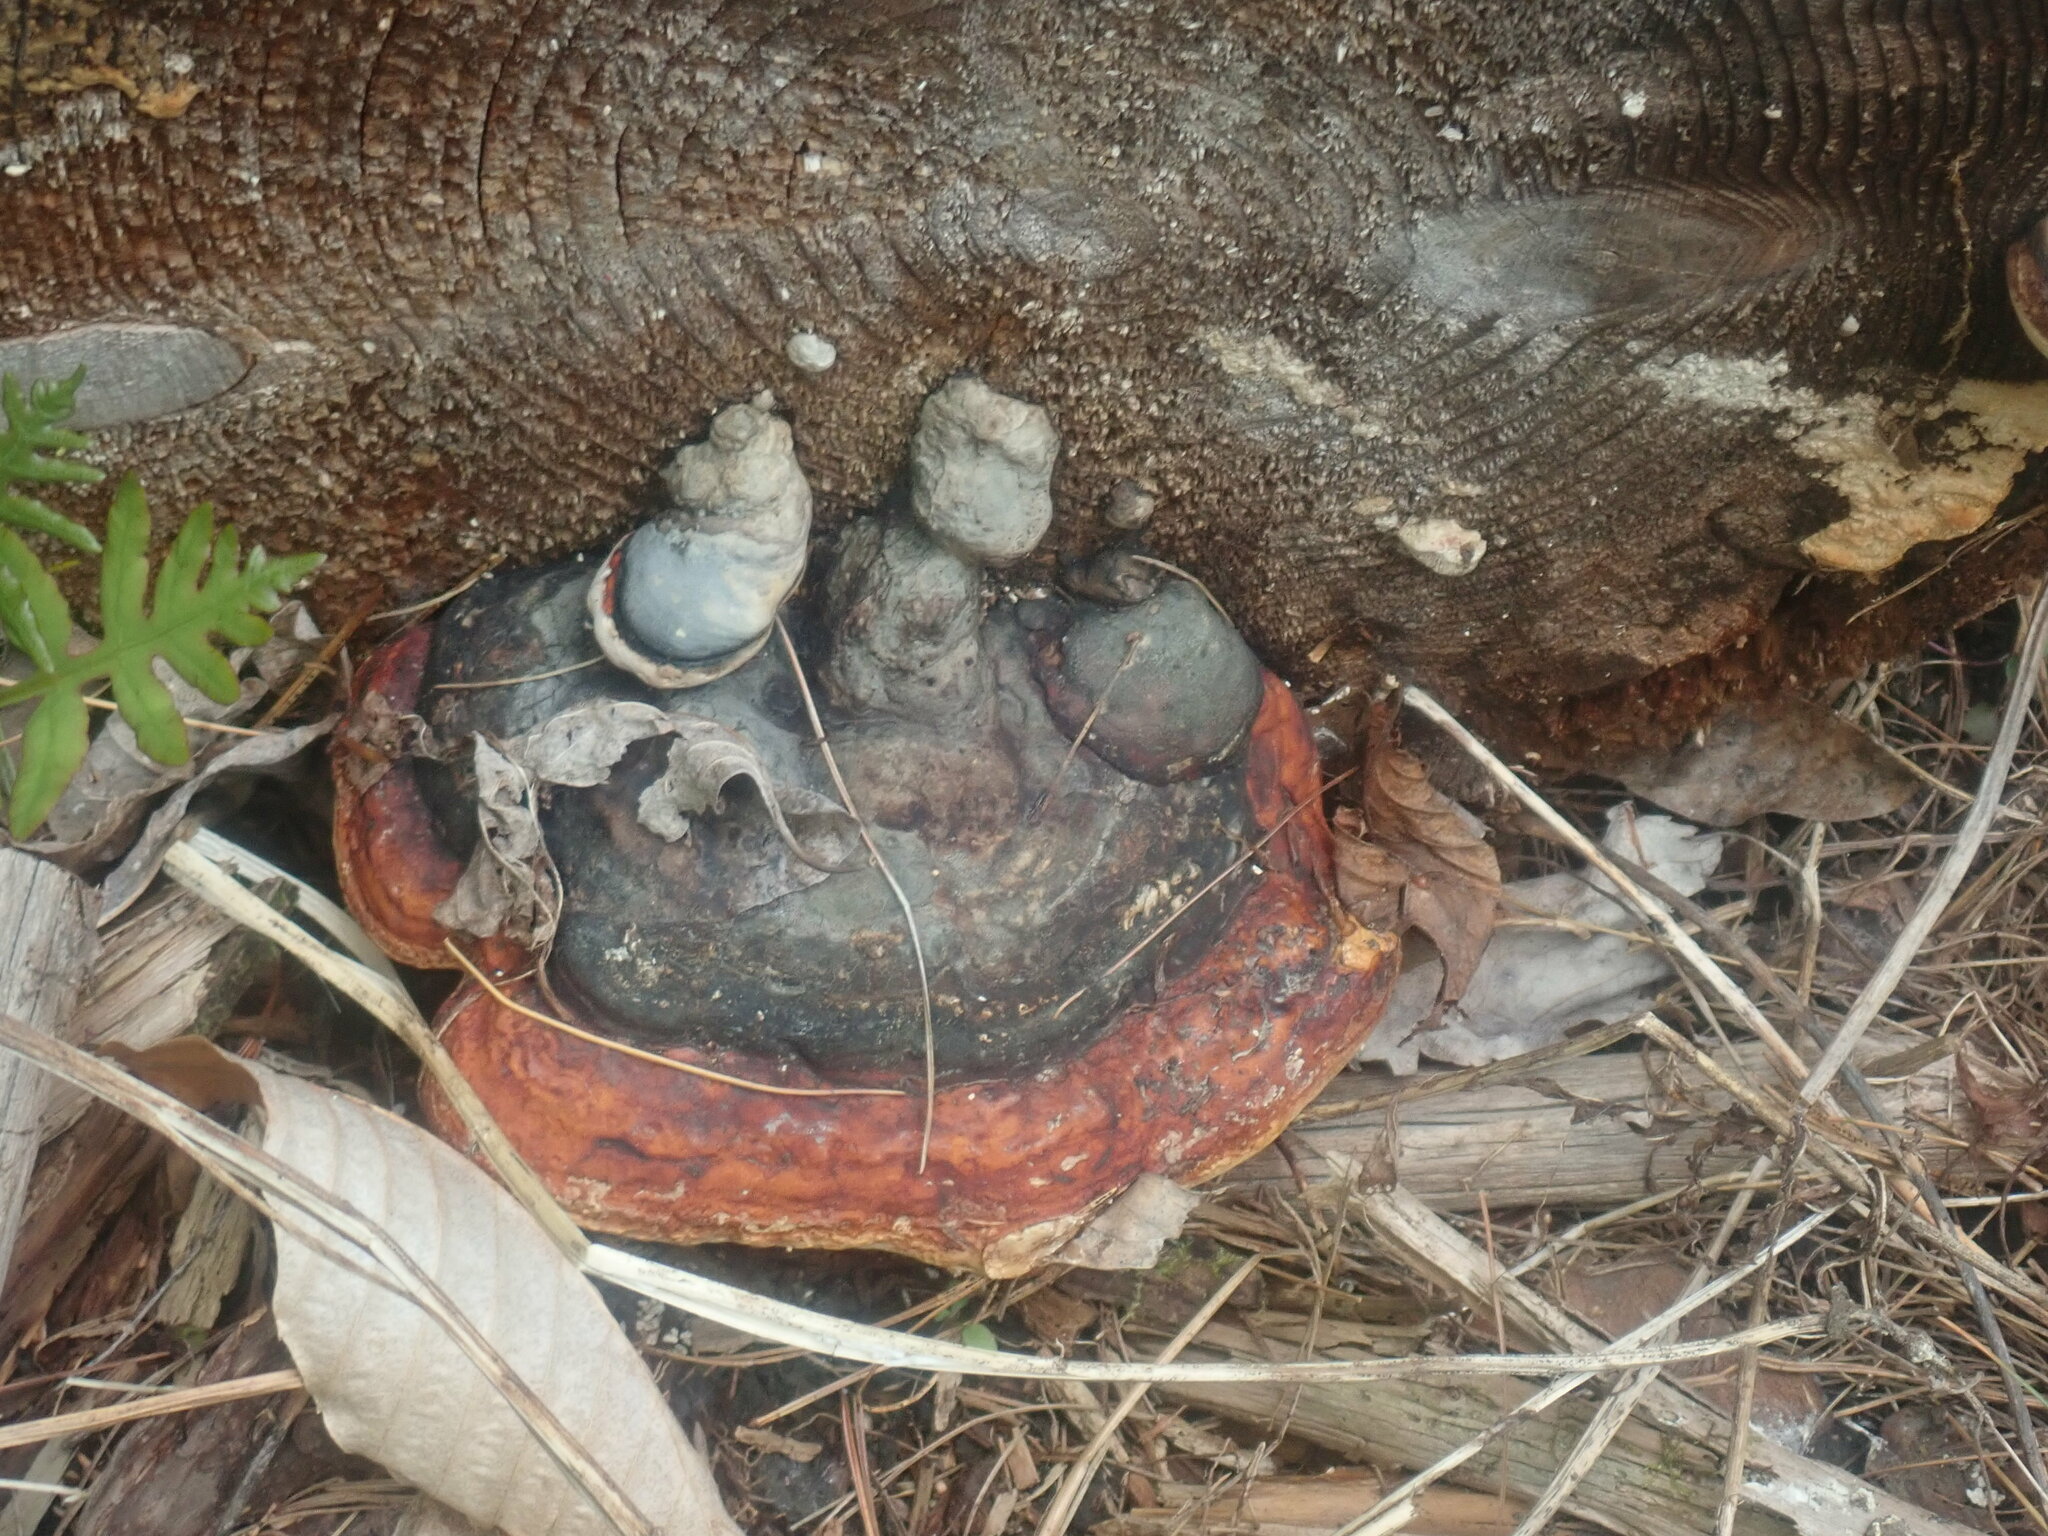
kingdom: Fungi
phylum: Basidiomycota
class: Agaricomycetes
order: Polyporales
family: Fomitopsidaceae
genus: Fomitopsis
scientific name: Fomitopsis mounceae
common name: Northern red belt
